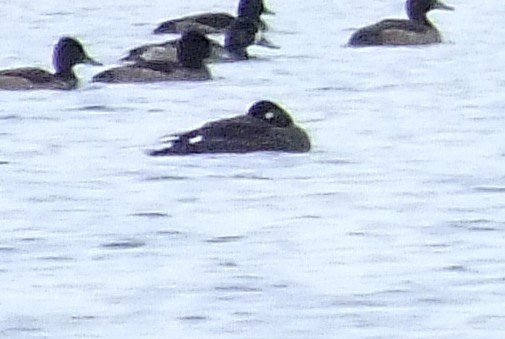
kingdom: Animalia
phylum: Chordata
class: Aves
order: Anseriformes
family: Anatidae
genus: Melanitta
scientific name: Melanitta fusca
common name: Velvet scoter
